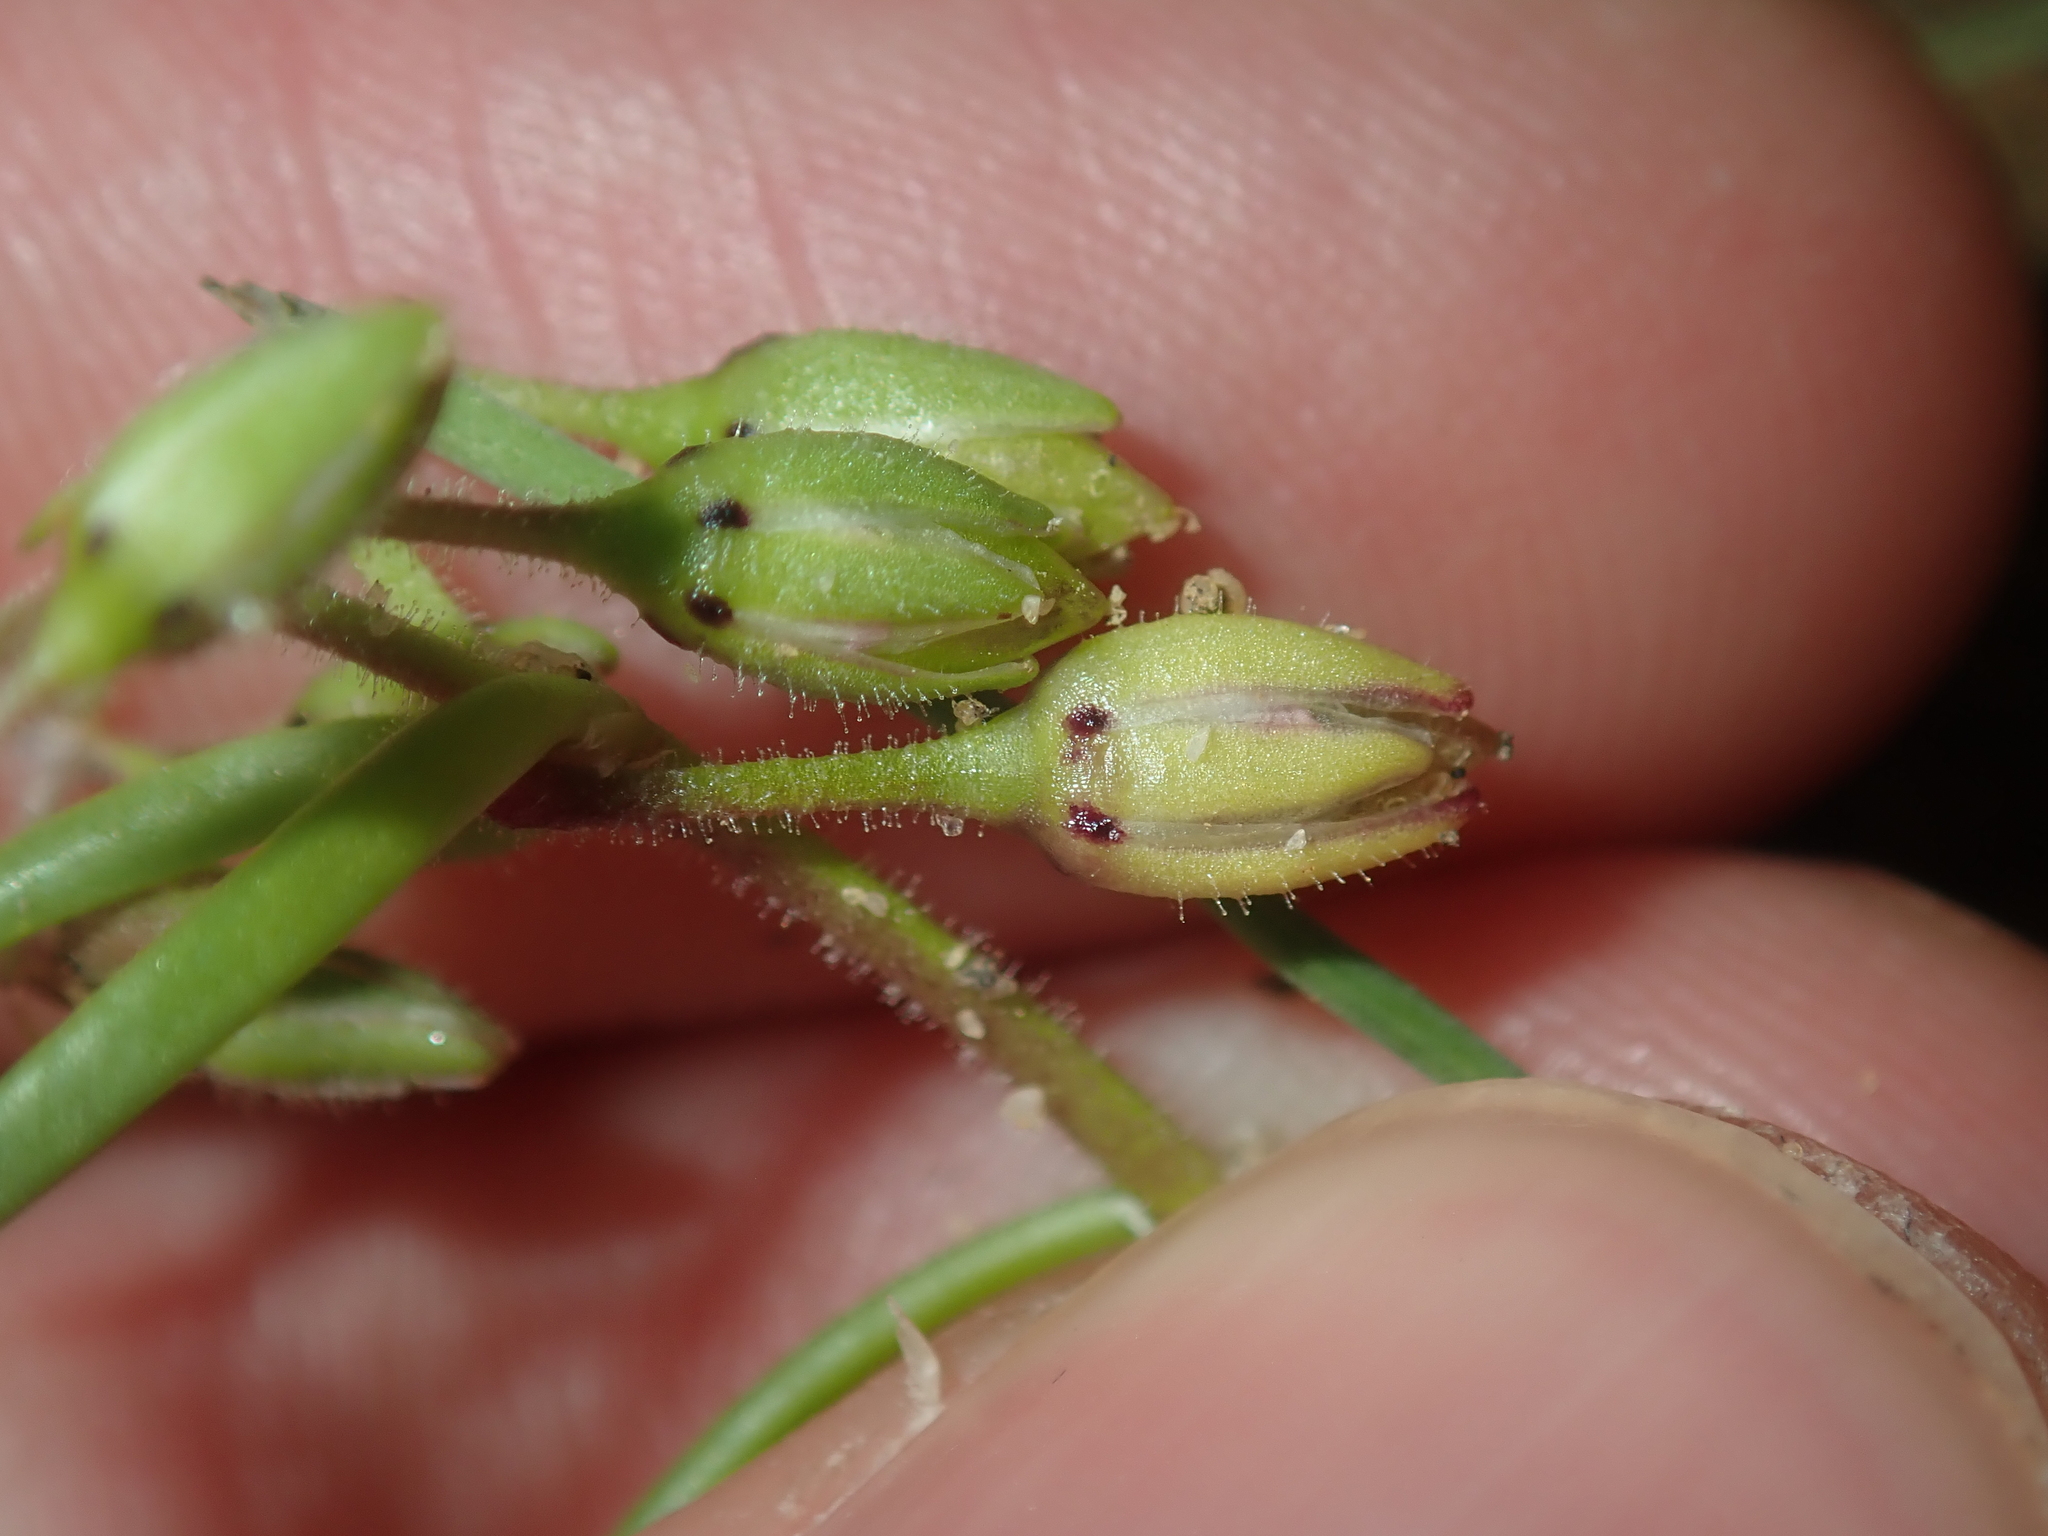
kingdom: Plantae
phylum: Tracheophyta
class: Magnoliopsida
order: Caryophyllales
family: Caryophyllaceae
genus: Spergularia
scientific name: Spergularia marina
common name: Lesser sea-spurrey
